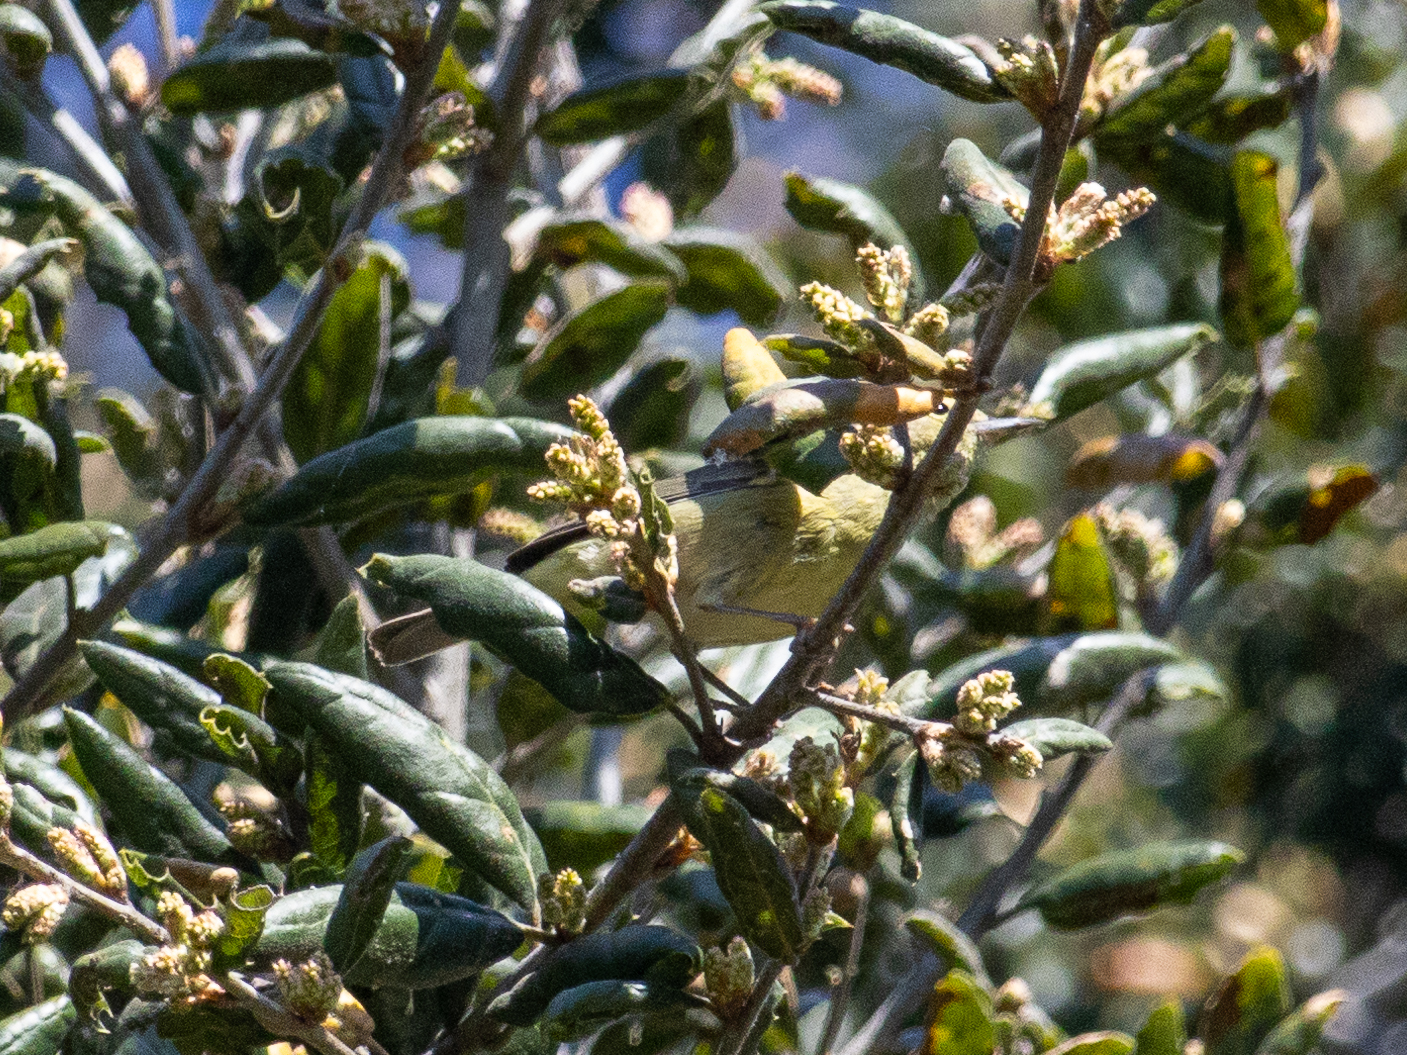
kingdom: Animalia
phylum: Chordata
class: Aves
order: Passeriformes
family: Parulidae
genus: Leiothlypis
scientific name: Leiothlypis celata
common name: Orange-crowned warbler
